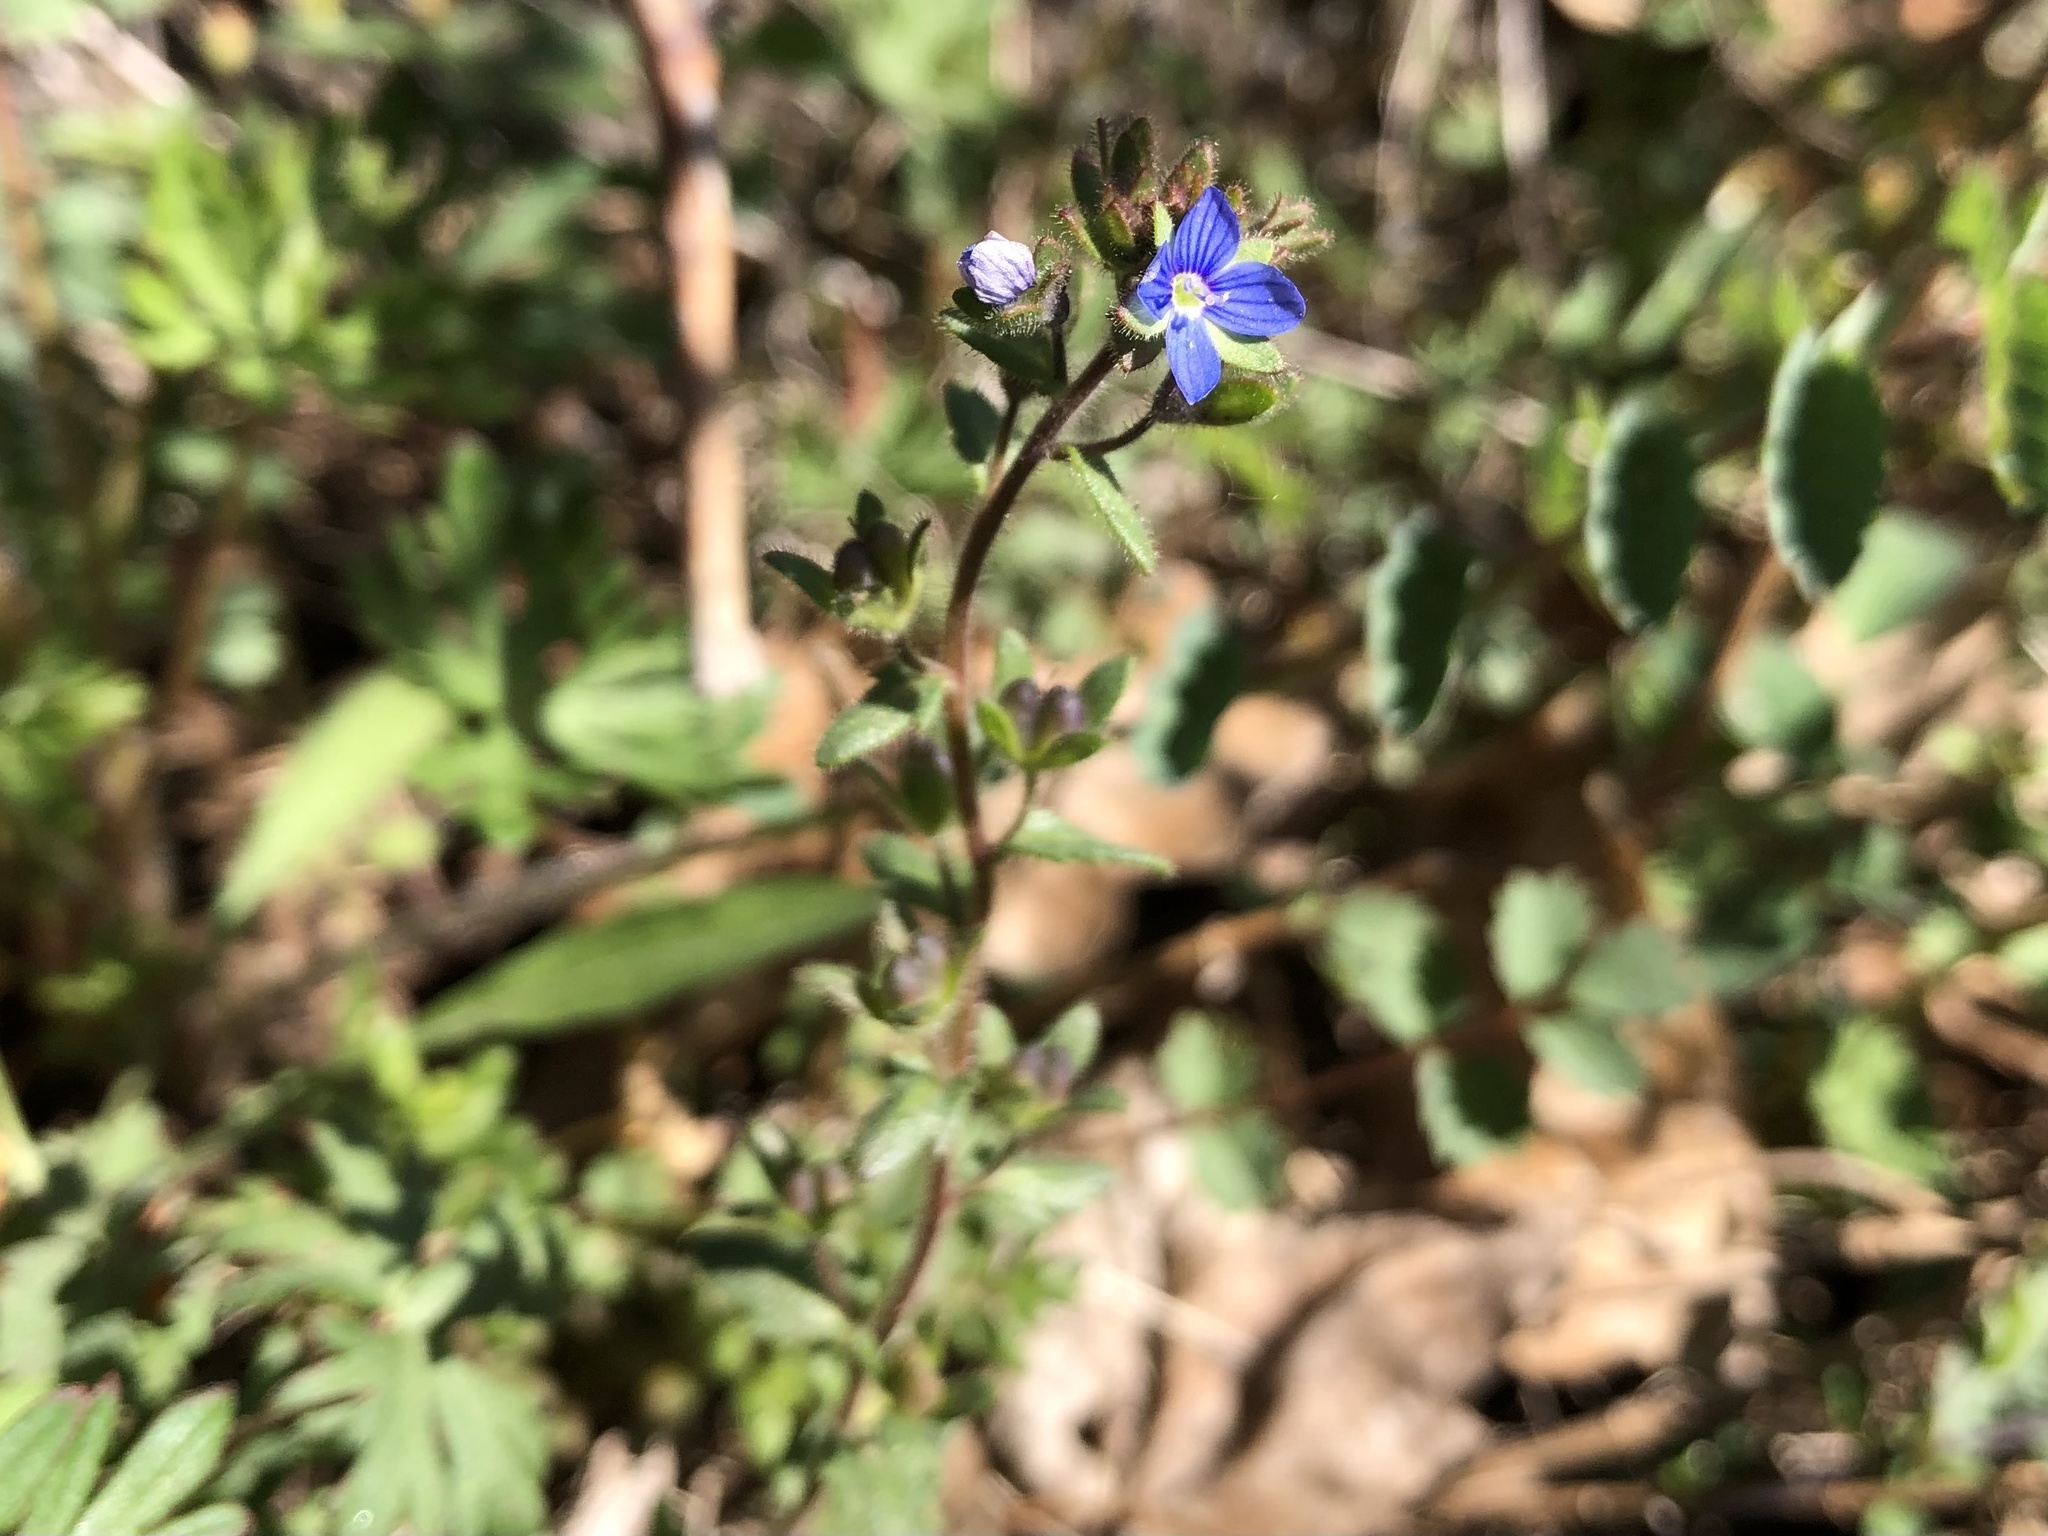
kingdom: Plantae
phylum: Tracheophyta
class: Magnoliopsida
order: Lamiales
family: Plantaginaceae
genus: Veronica
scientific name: Veronica praecox
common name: Breckland speedwell
